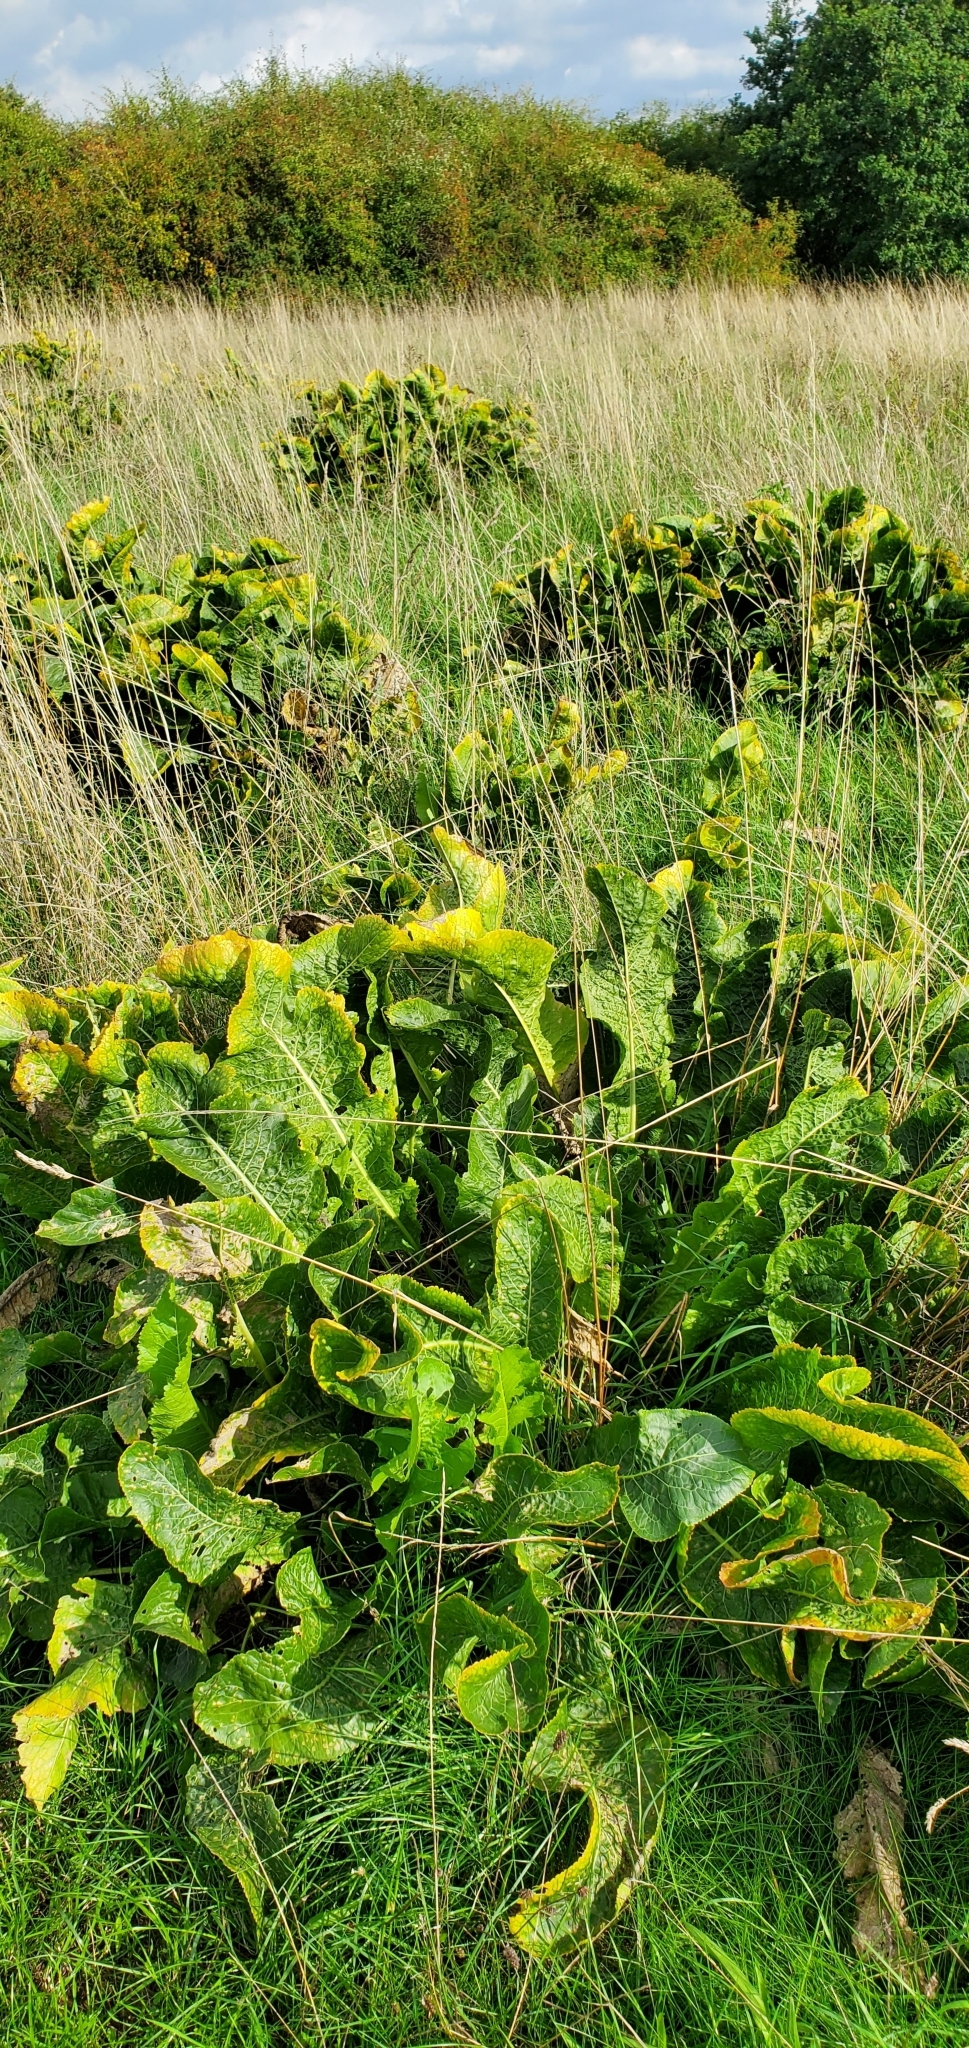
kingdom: Plantae
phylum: Tracheophyta
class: Magnoliopsida
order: Brassicales
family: Brassicaceae
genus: Armoracia
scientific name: Armoracia rusticana
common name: Horseradish
